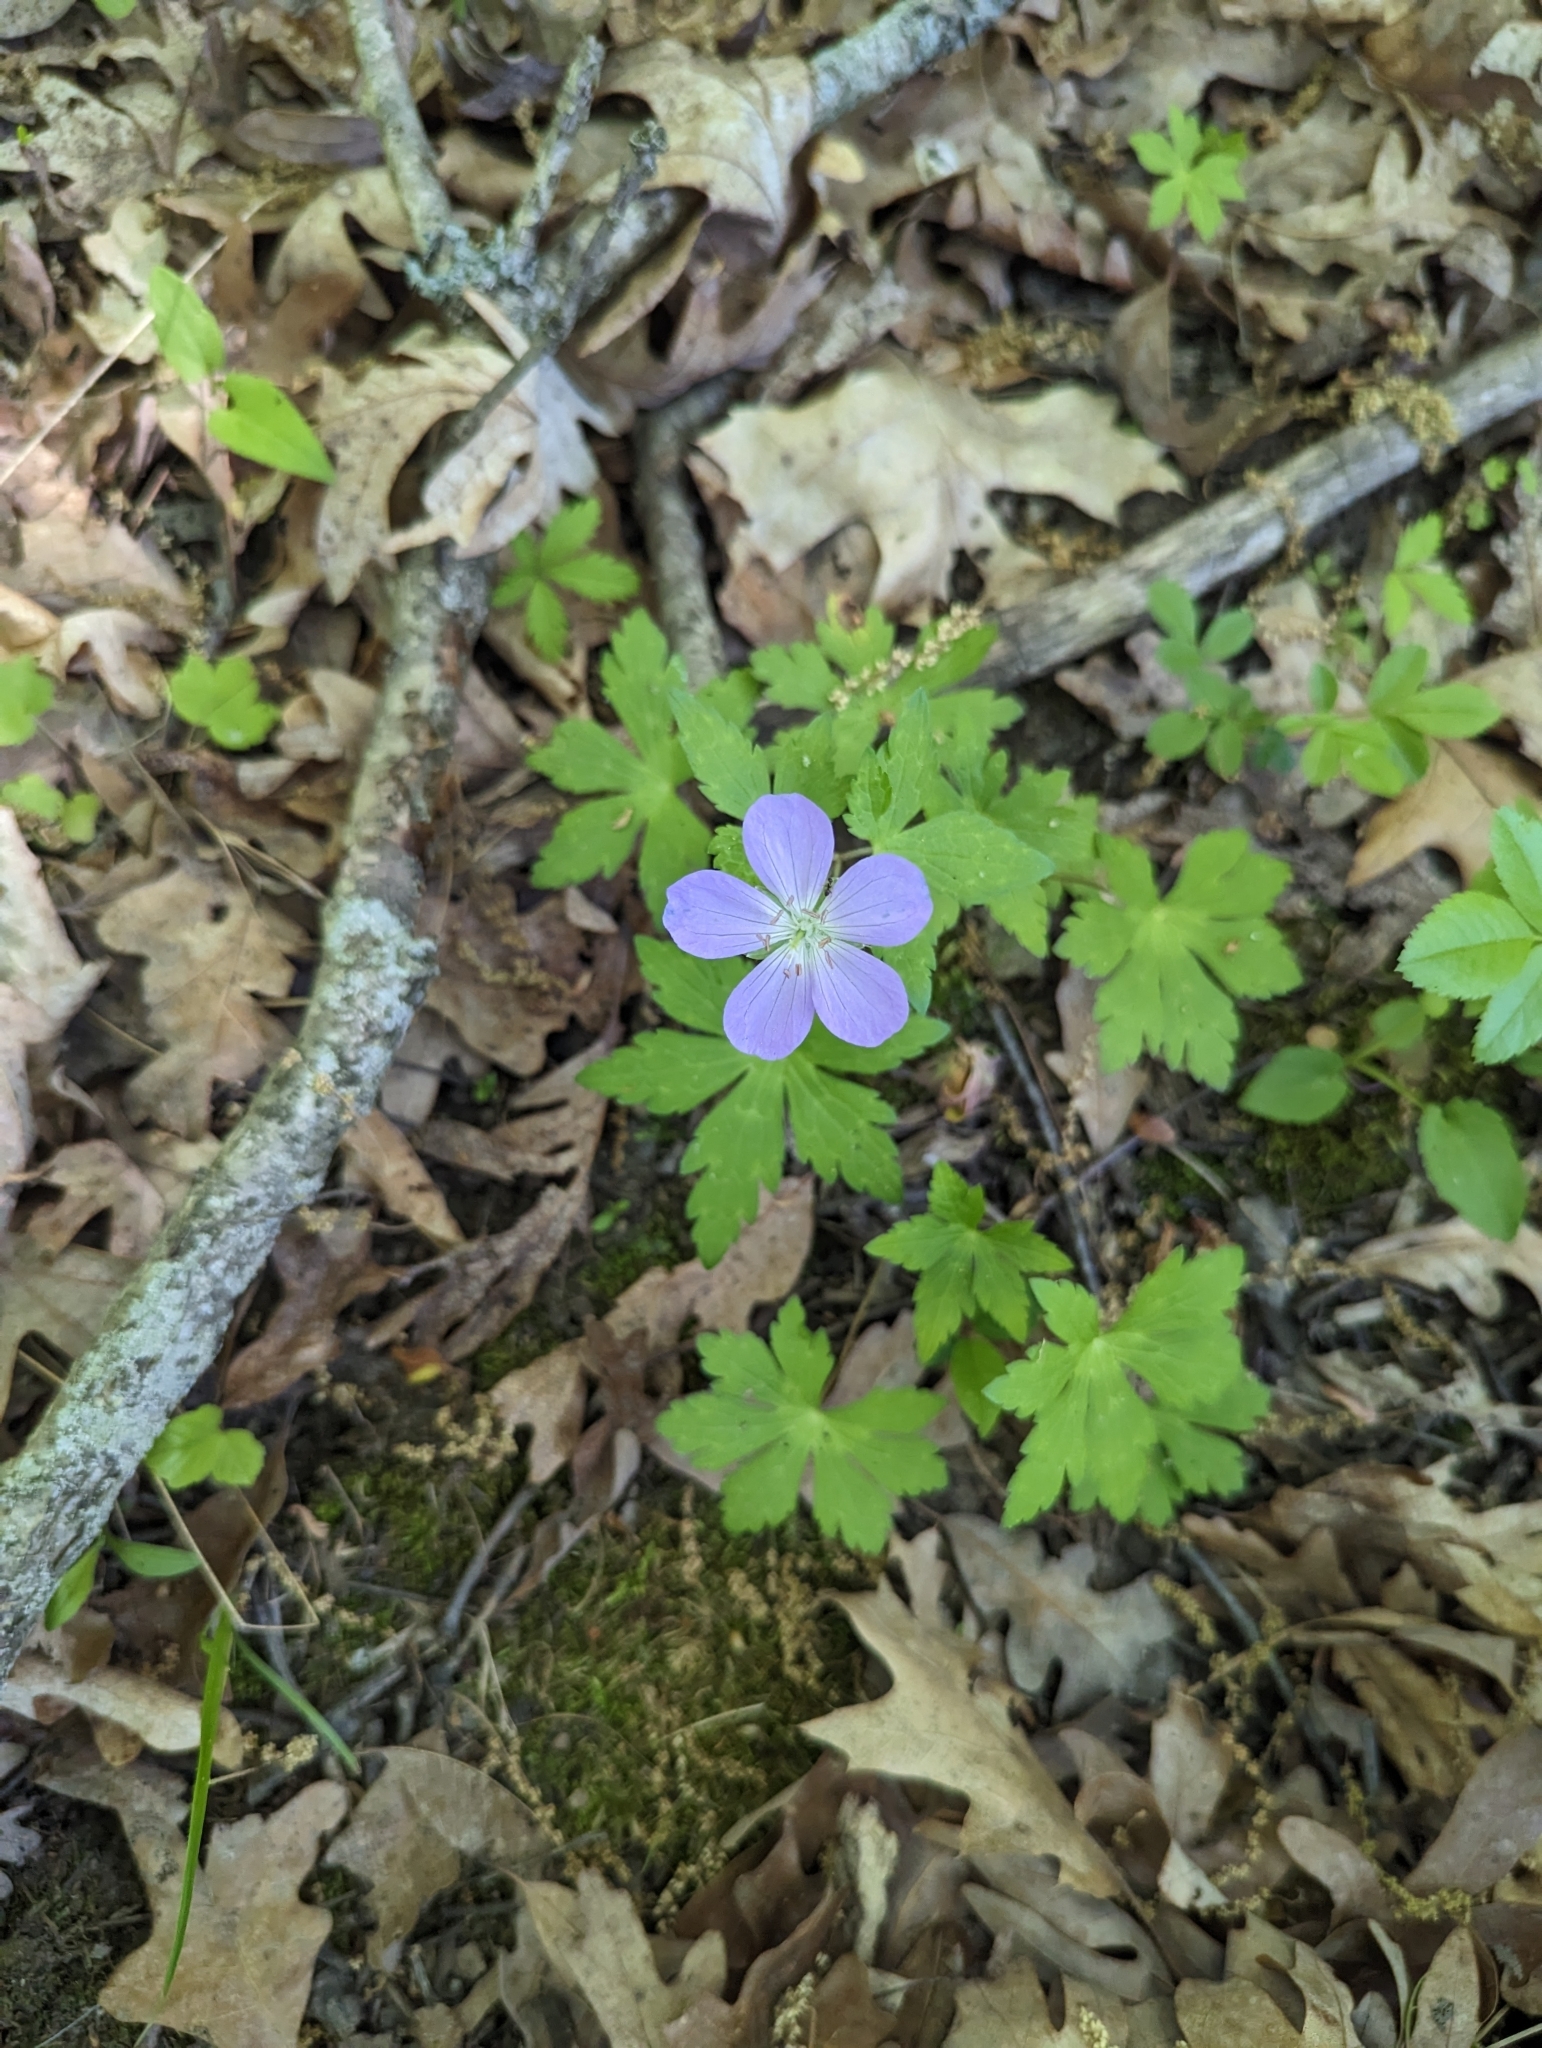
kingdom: Plantae
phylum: Tracheophyta
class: Magnoliopsida
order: Geraniales
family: Geraniaceae
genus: Geranium
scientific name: Geranium maculatum
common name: Spotted geranium
